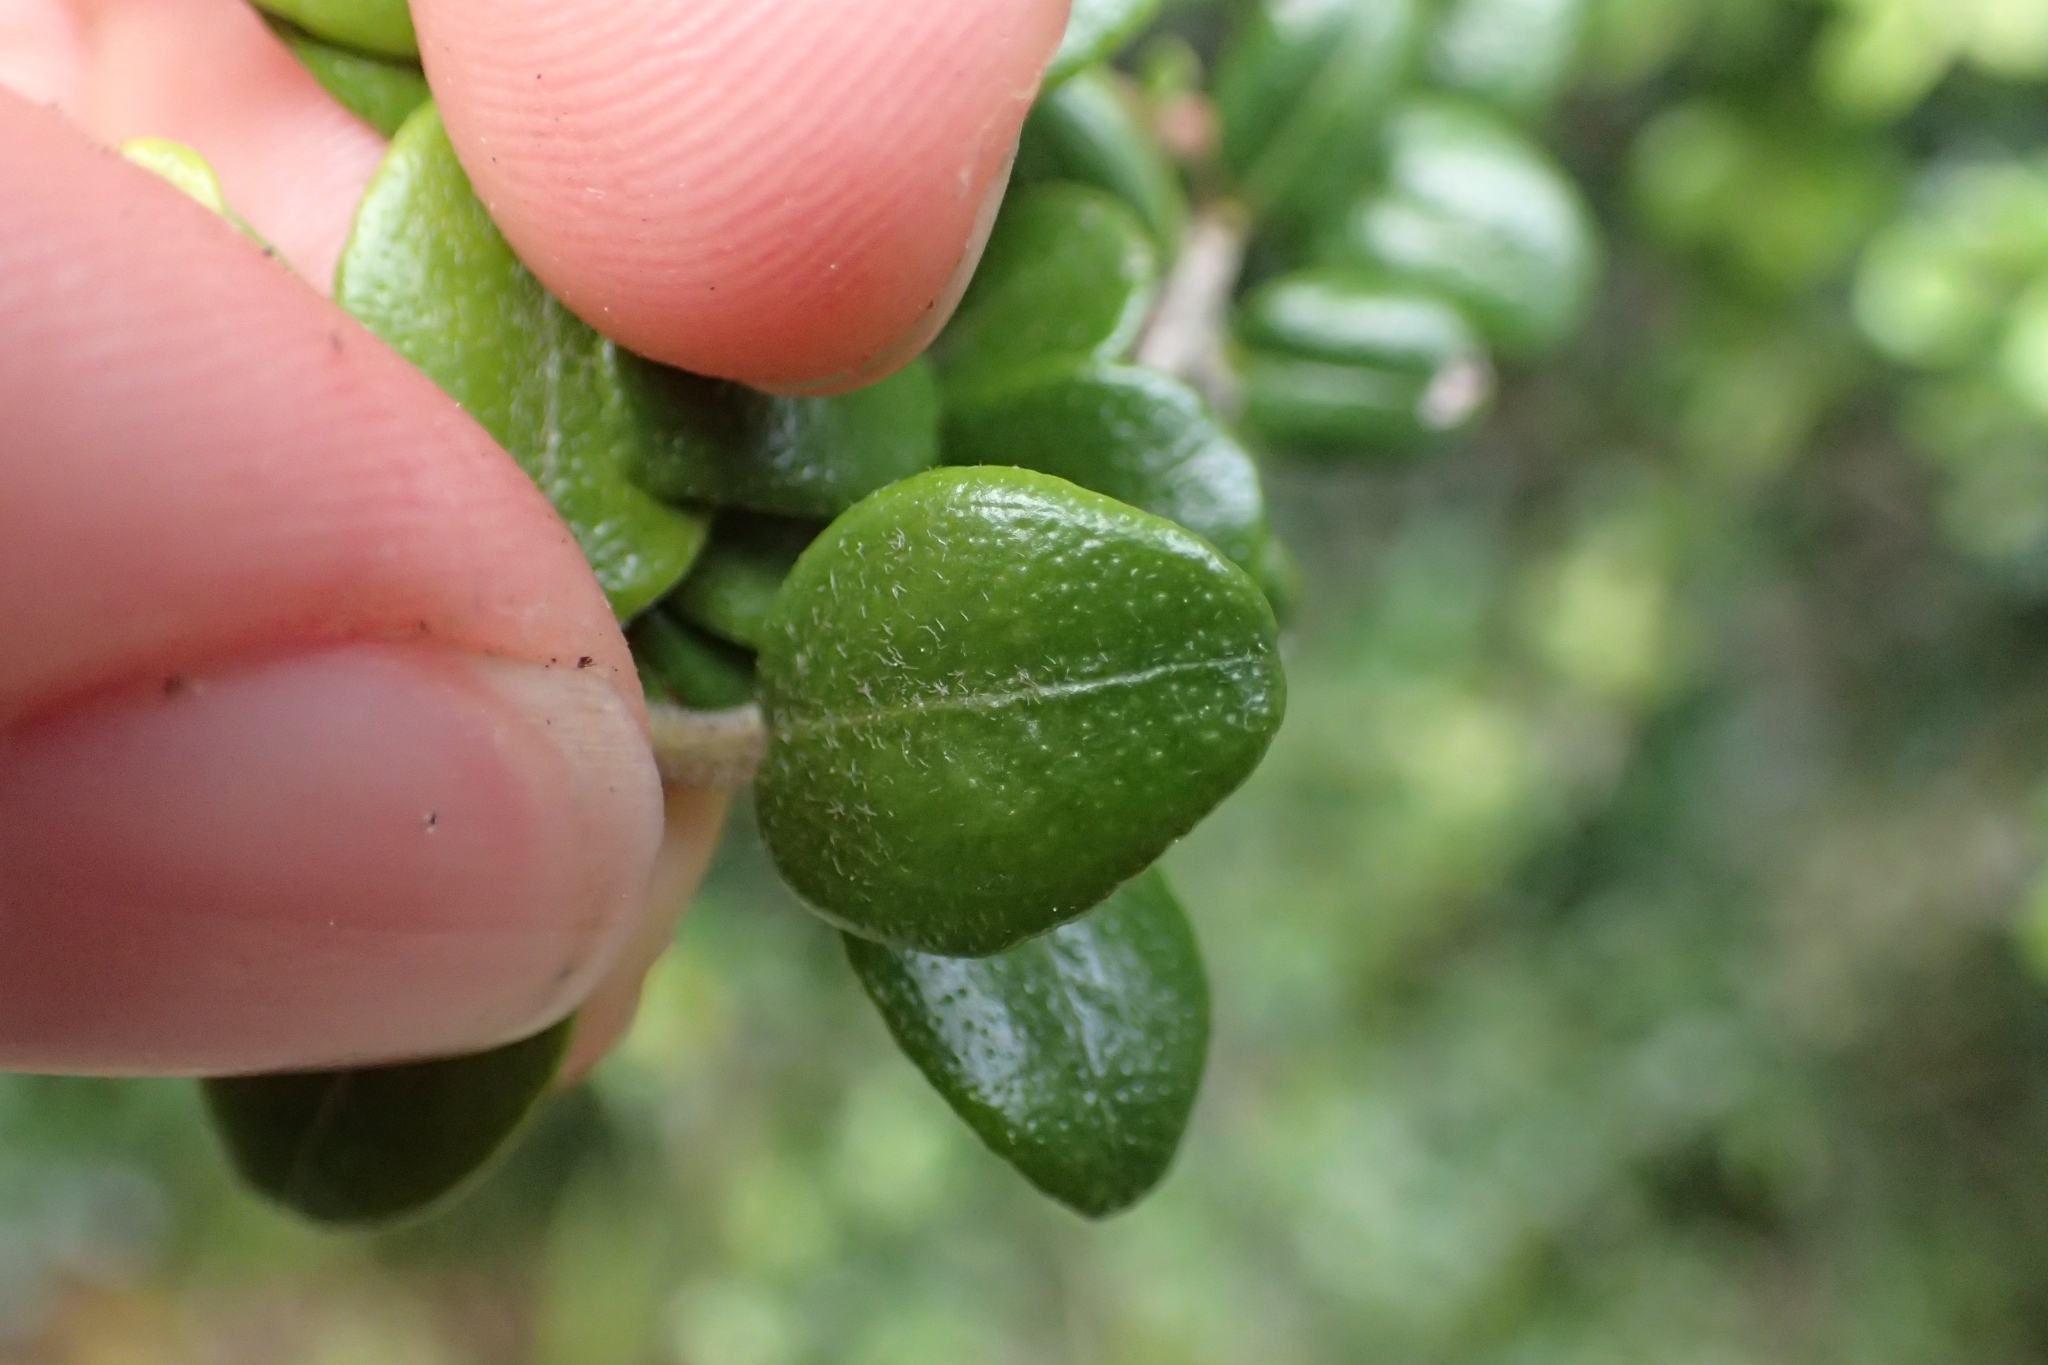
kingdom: Plantae
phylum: Tracheophyta
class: Magnoliopsida
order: Myrtales
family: Myrtaceae
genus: Metrosideros
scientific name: Metrosideros perforata
